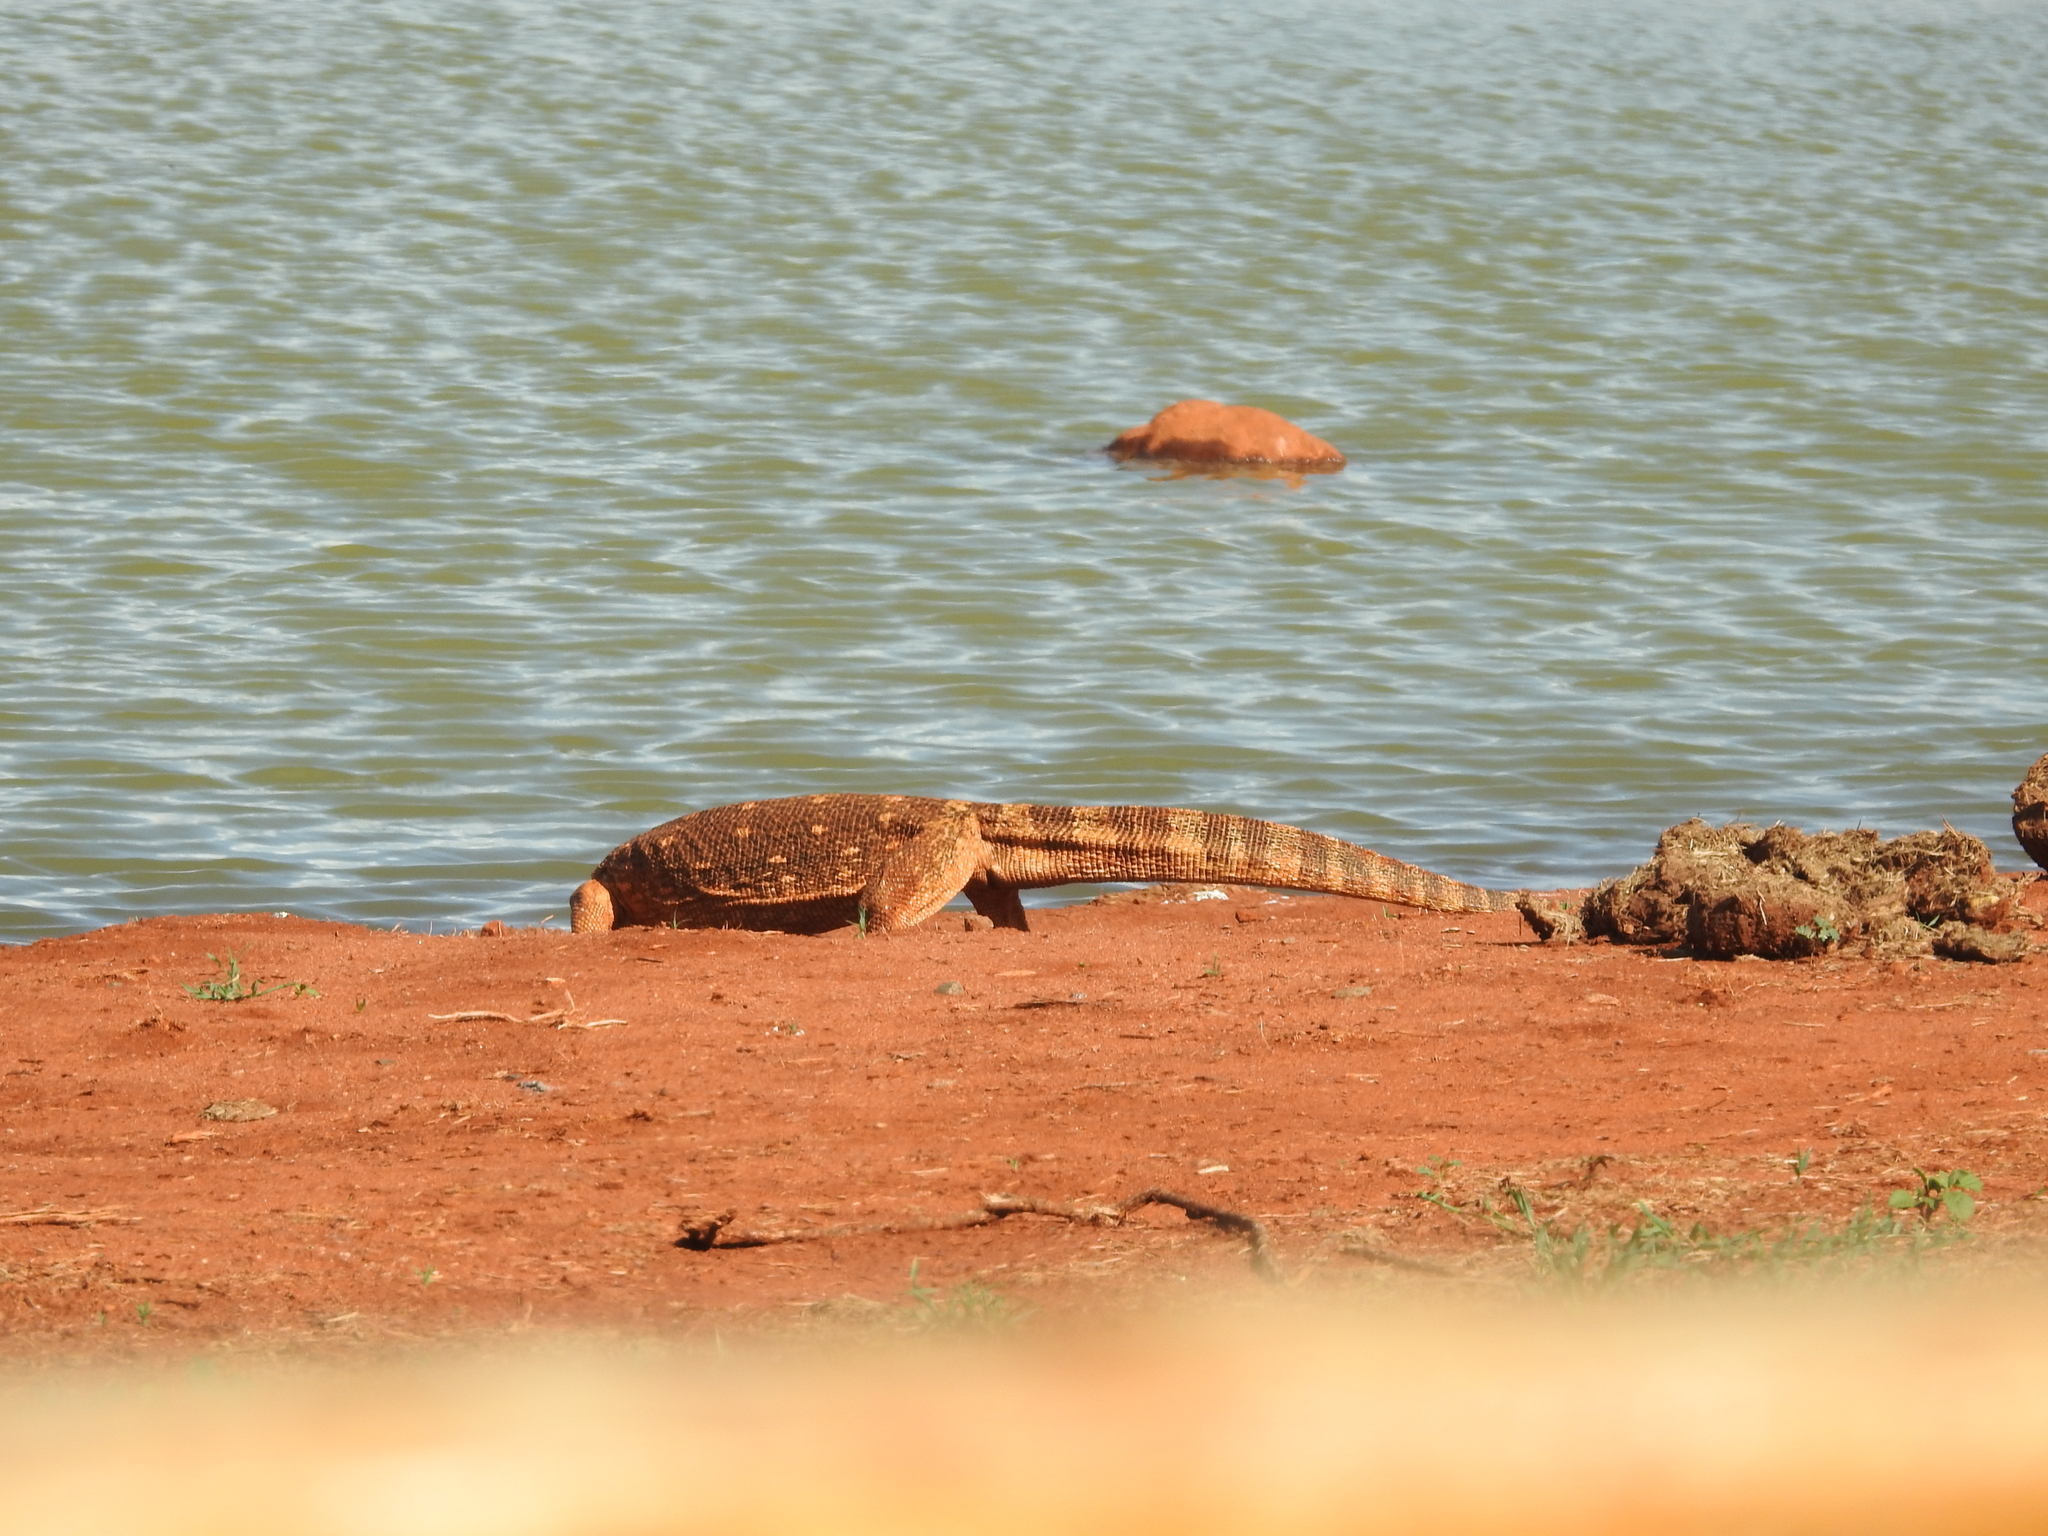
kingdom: Animalia
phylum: Chordata
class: Squamata
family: Varanidae
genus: Varanus
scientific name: Varanus albigularis
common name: White-throated monitor
